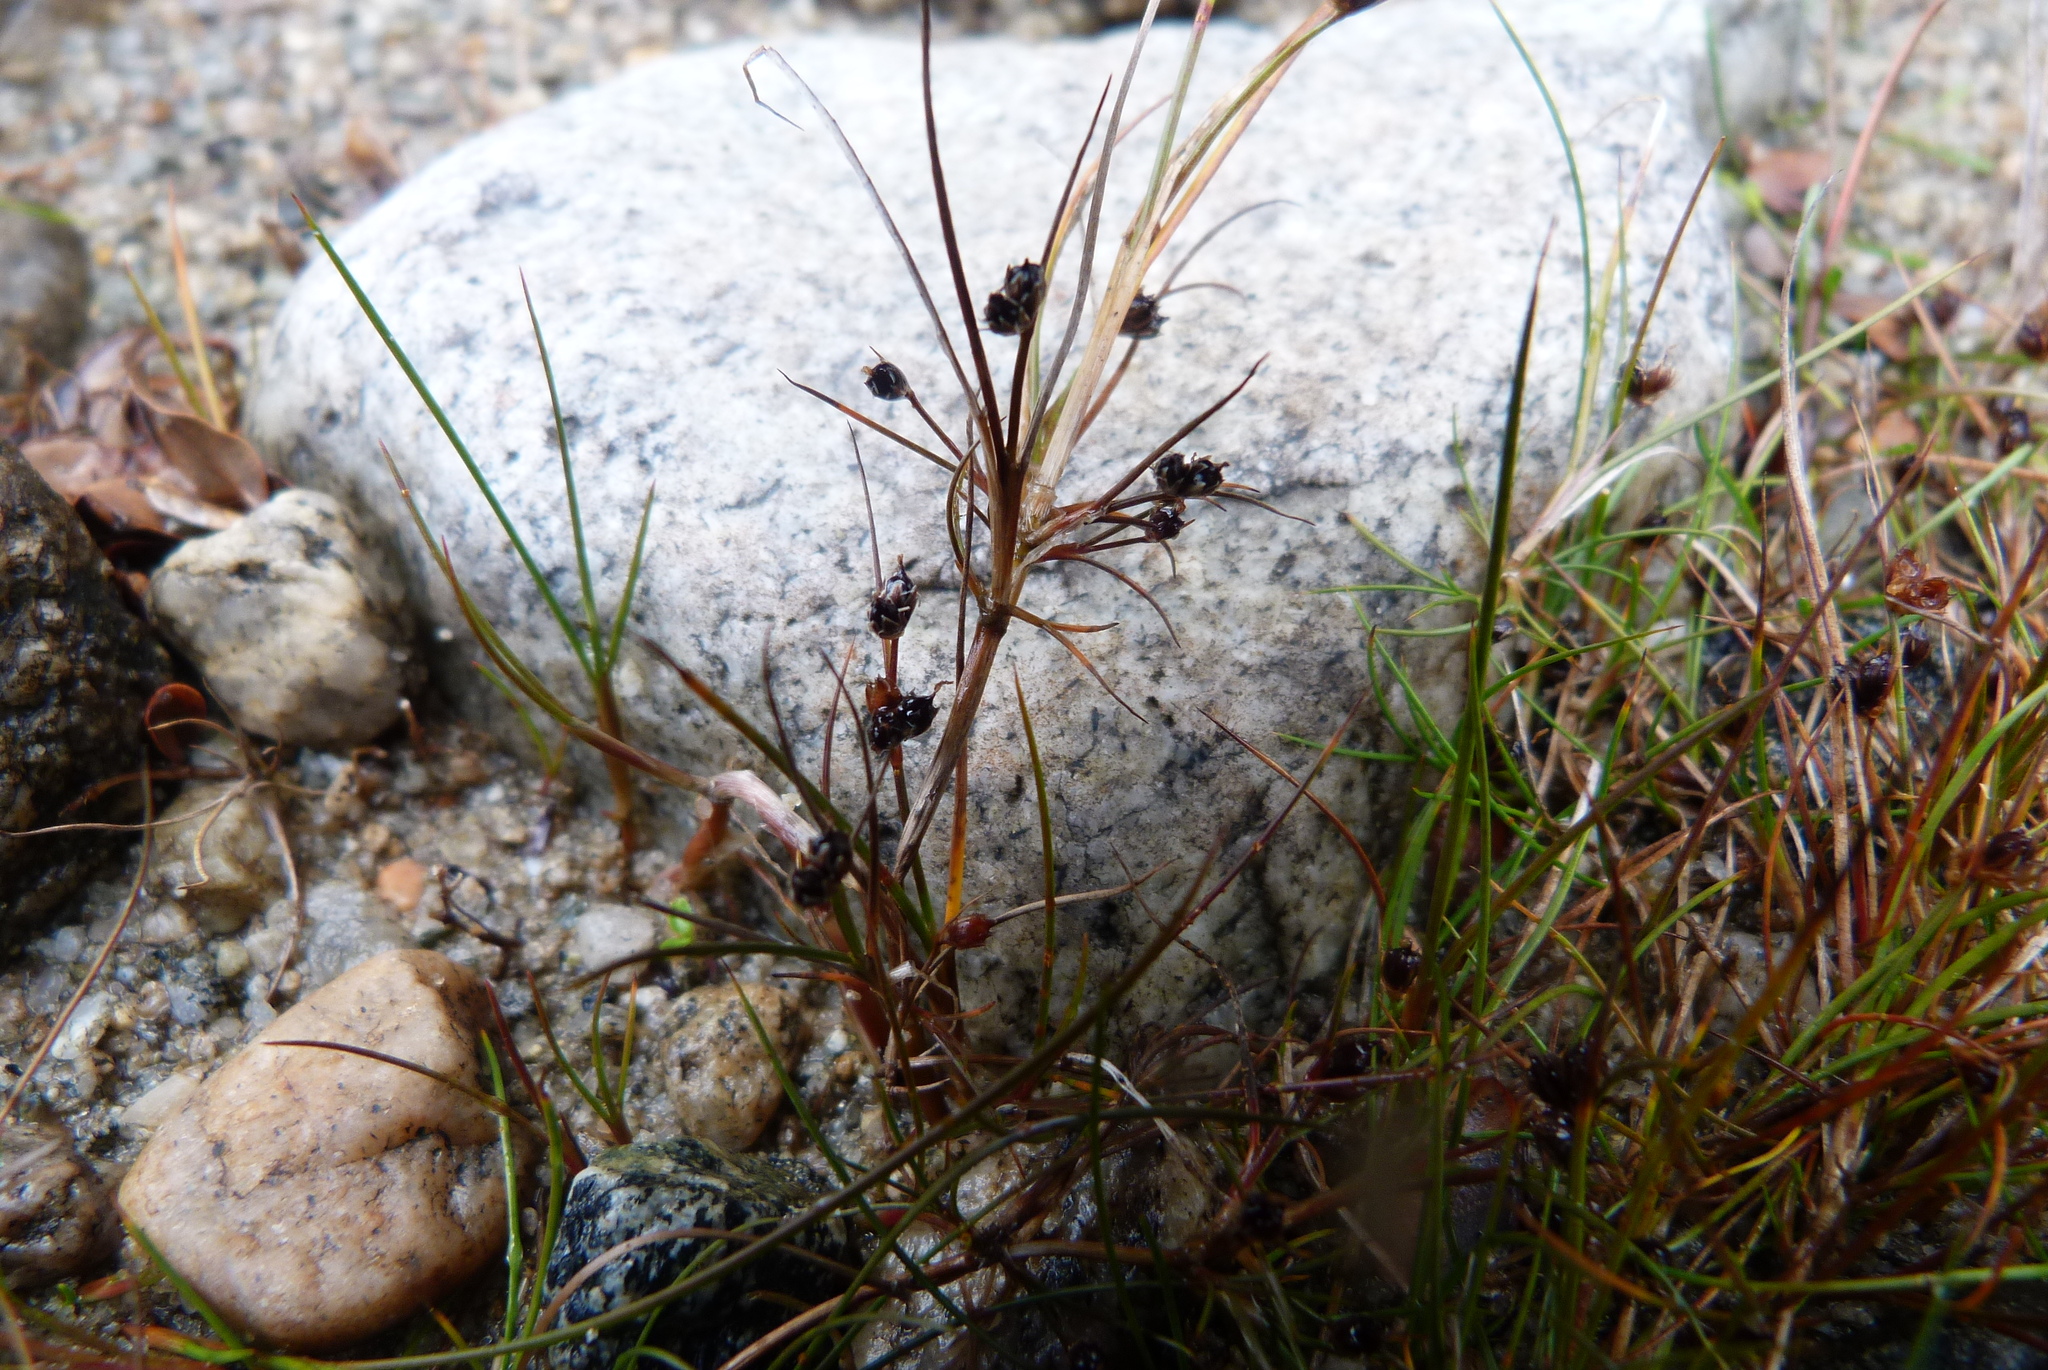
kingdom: Plantae
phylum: Tracheophyta
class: Liliopsida
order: Poales
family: Juncaceae
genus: Juncus
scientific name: Juncus novae-zelandiae
